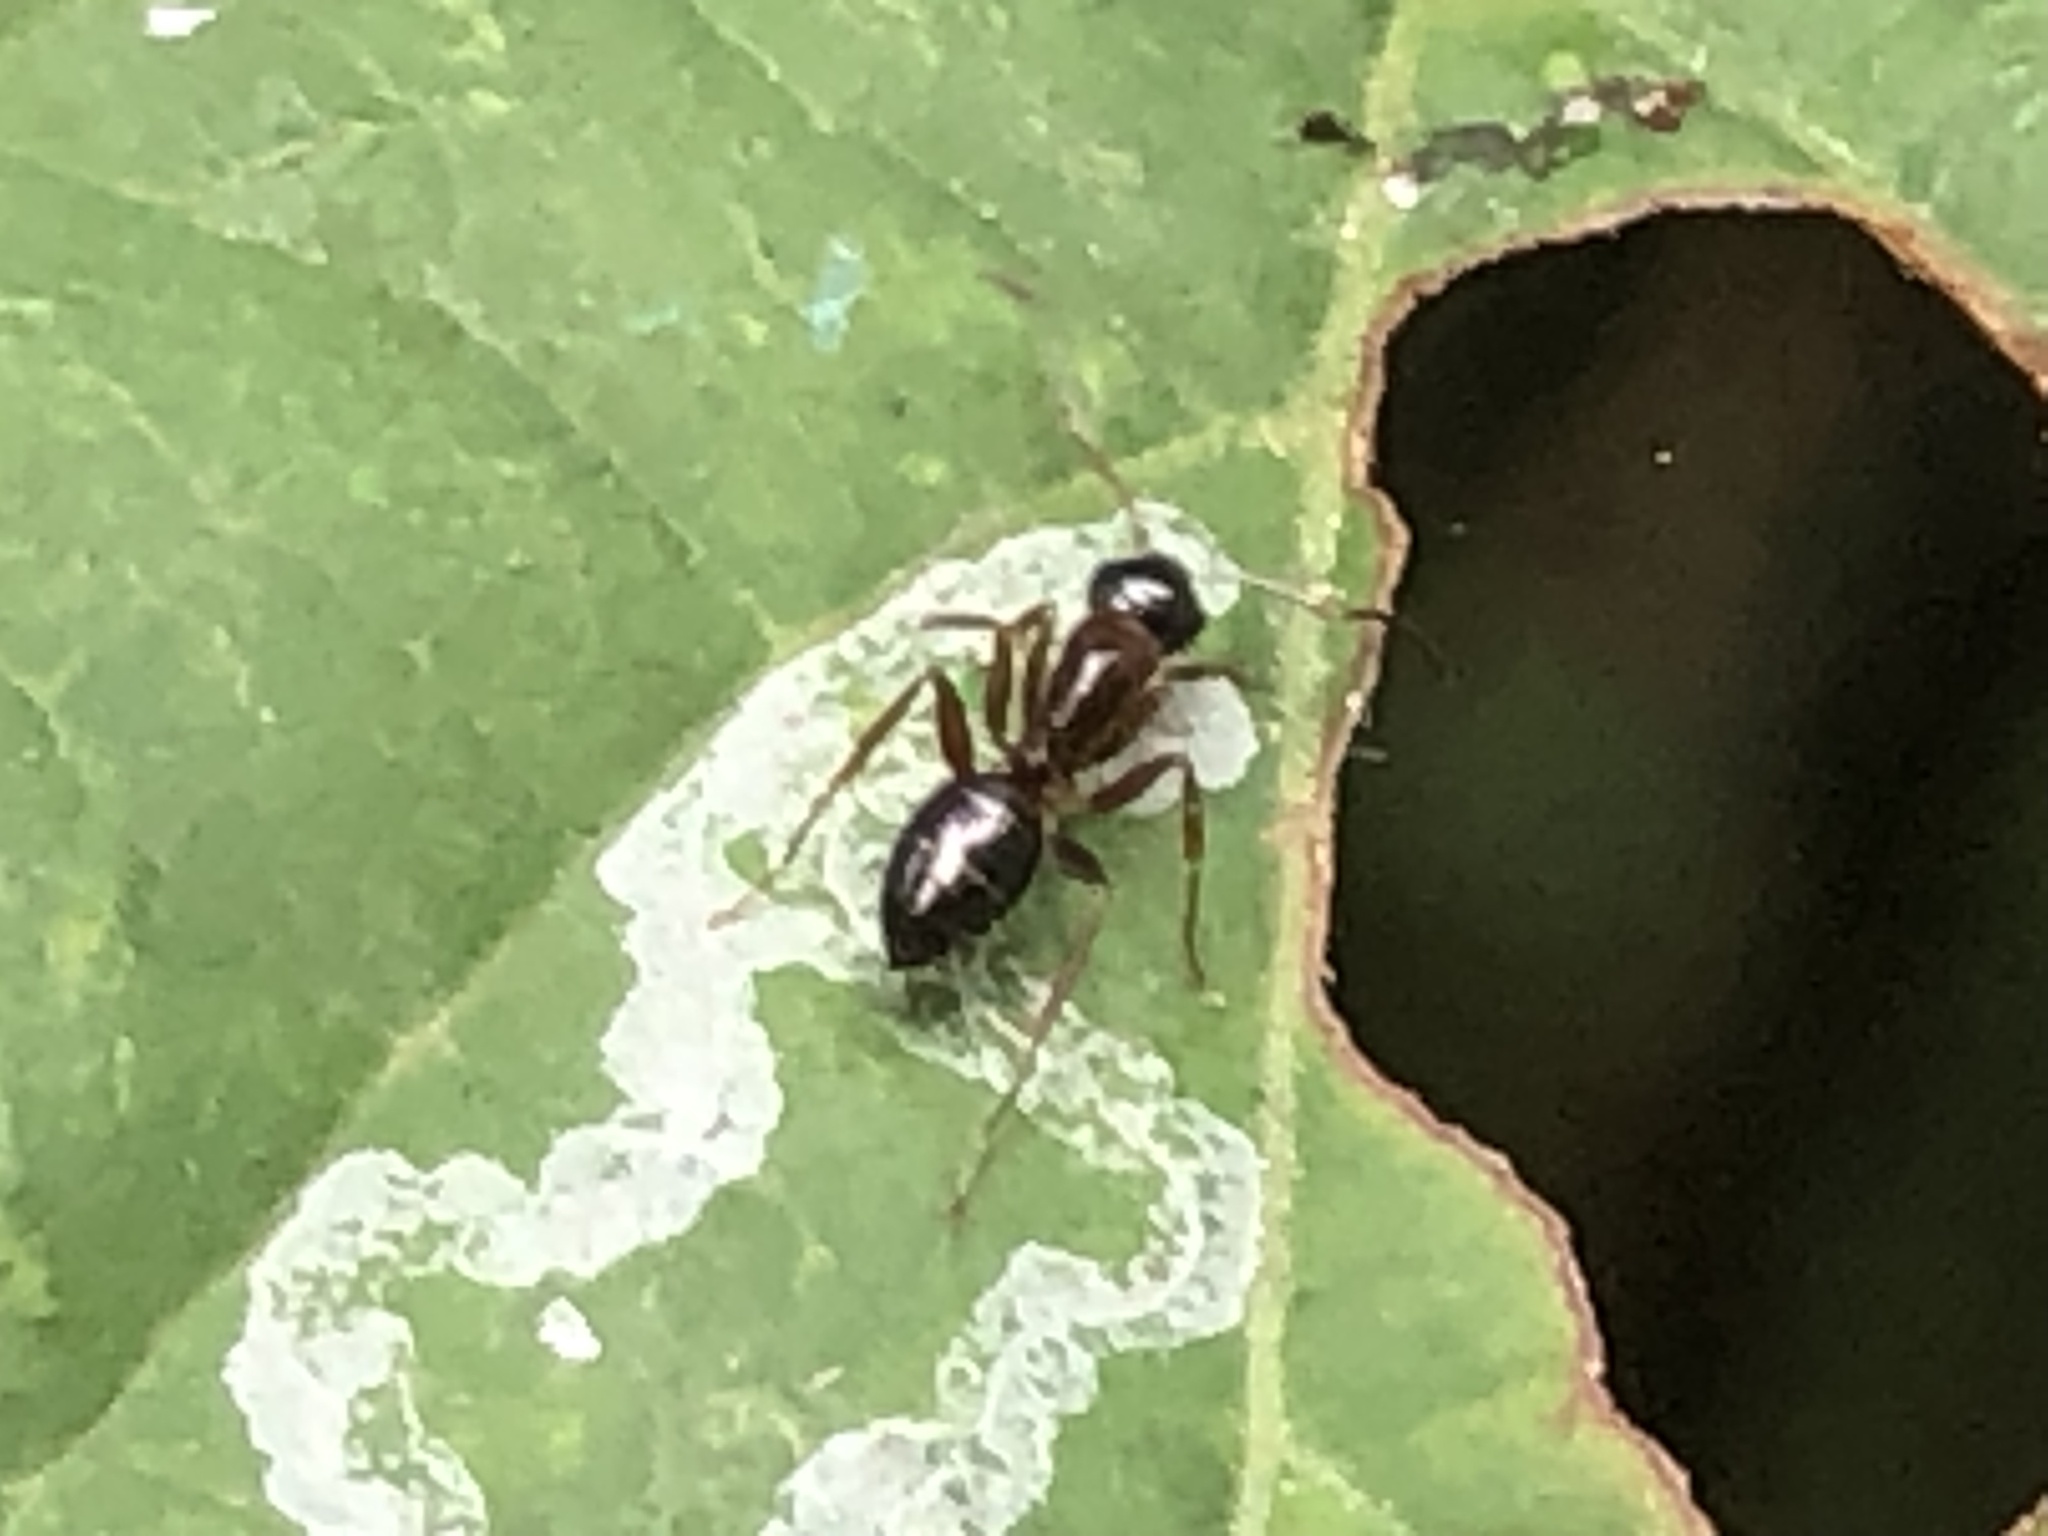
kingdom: Animalia
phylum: Arthropoda
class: Insecta
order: Hymenoptera
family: Formicidae
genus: Myrmentoma
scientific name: Myrmentoma
